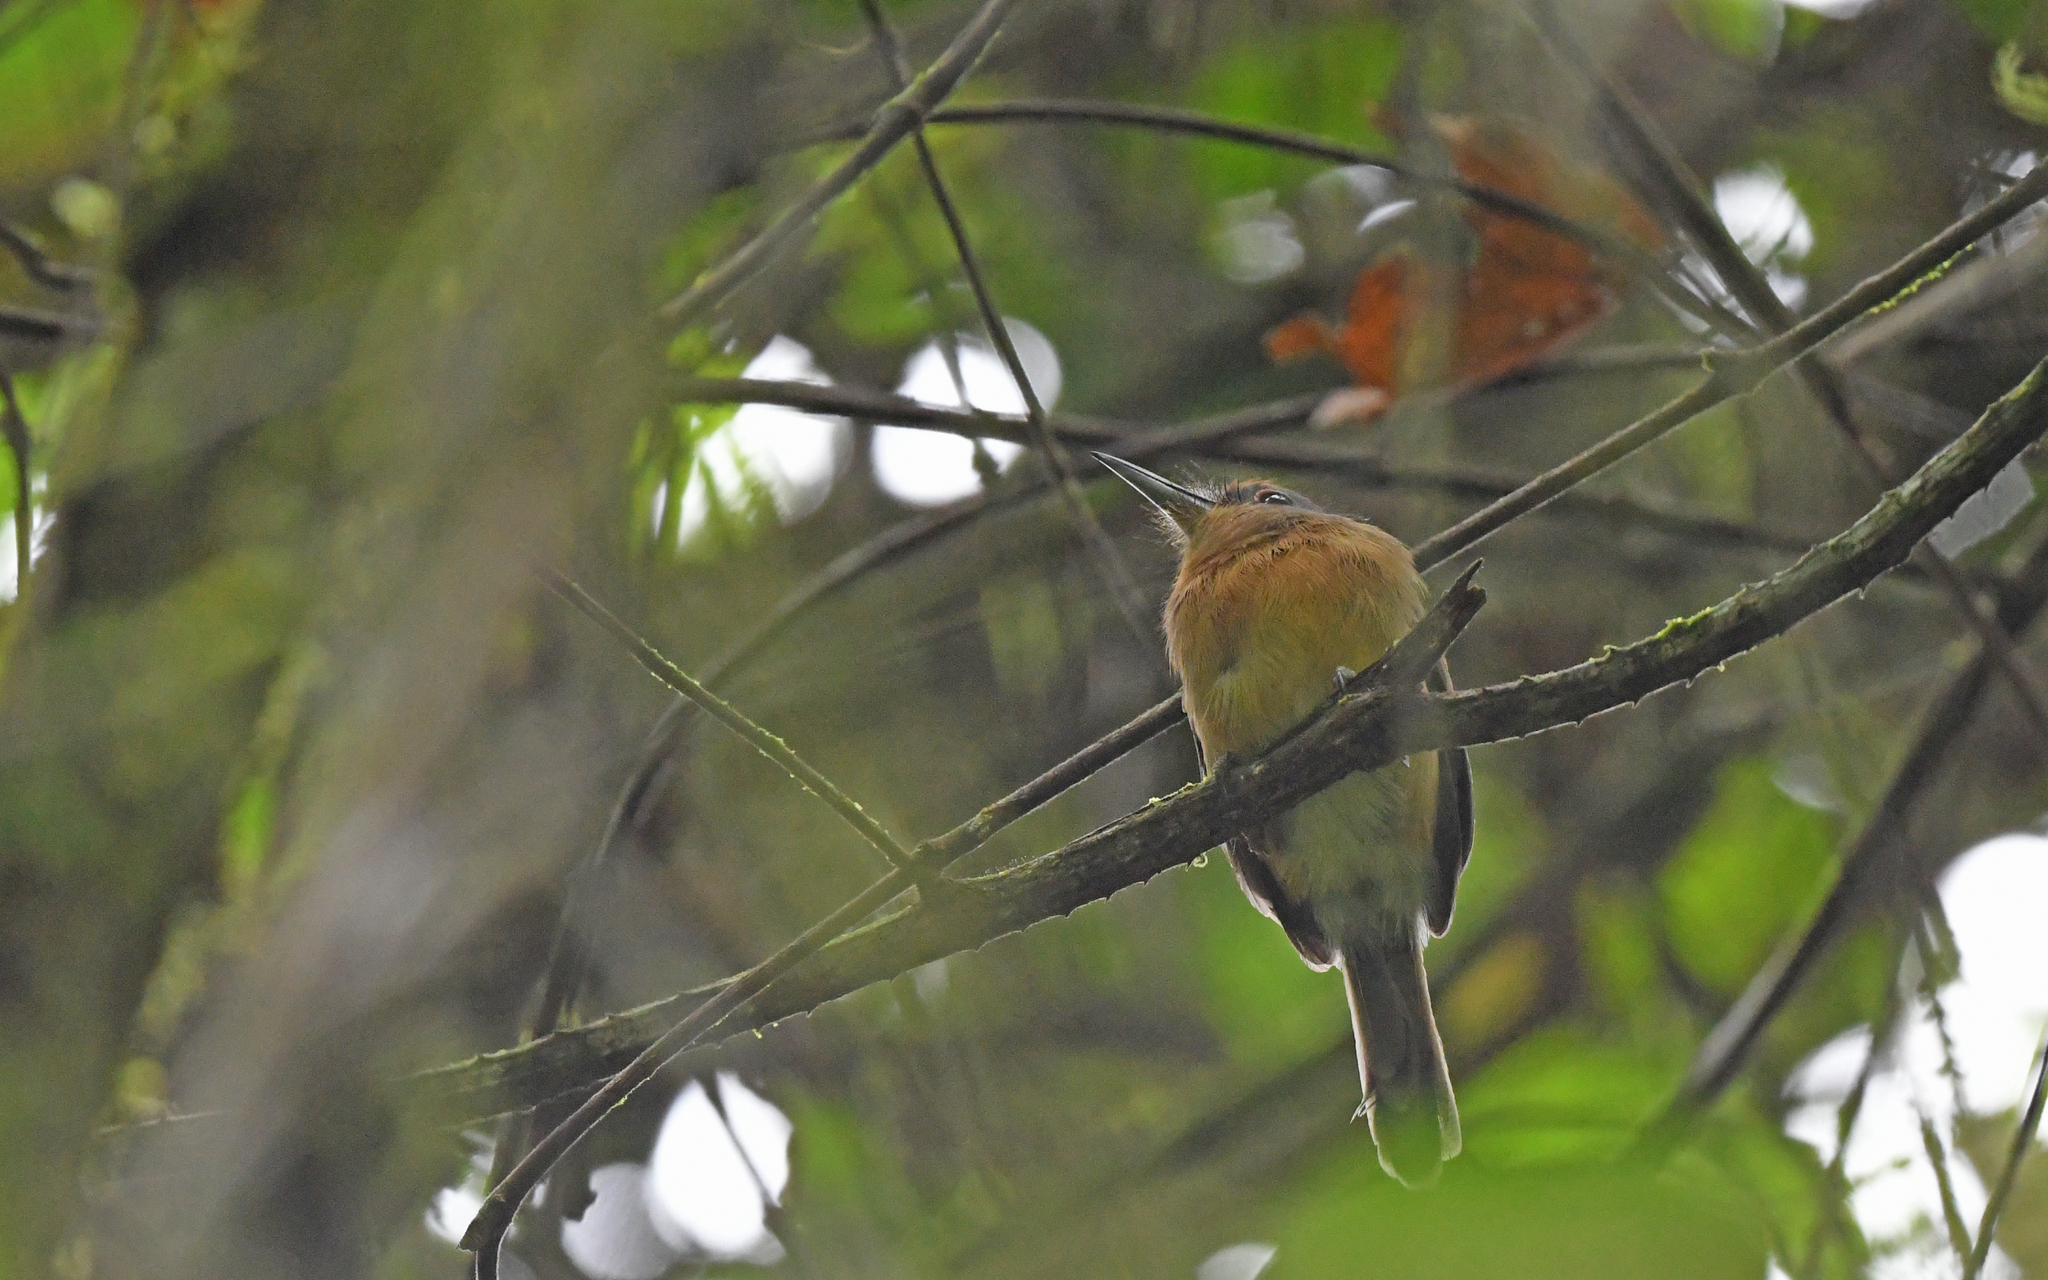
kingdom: Animalia
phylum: Chordata
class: Aves
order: Piciformes
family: Bucconidae
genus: Nonnula
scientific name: Nonnula frontalis
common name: Grey-cheeked nunlet
